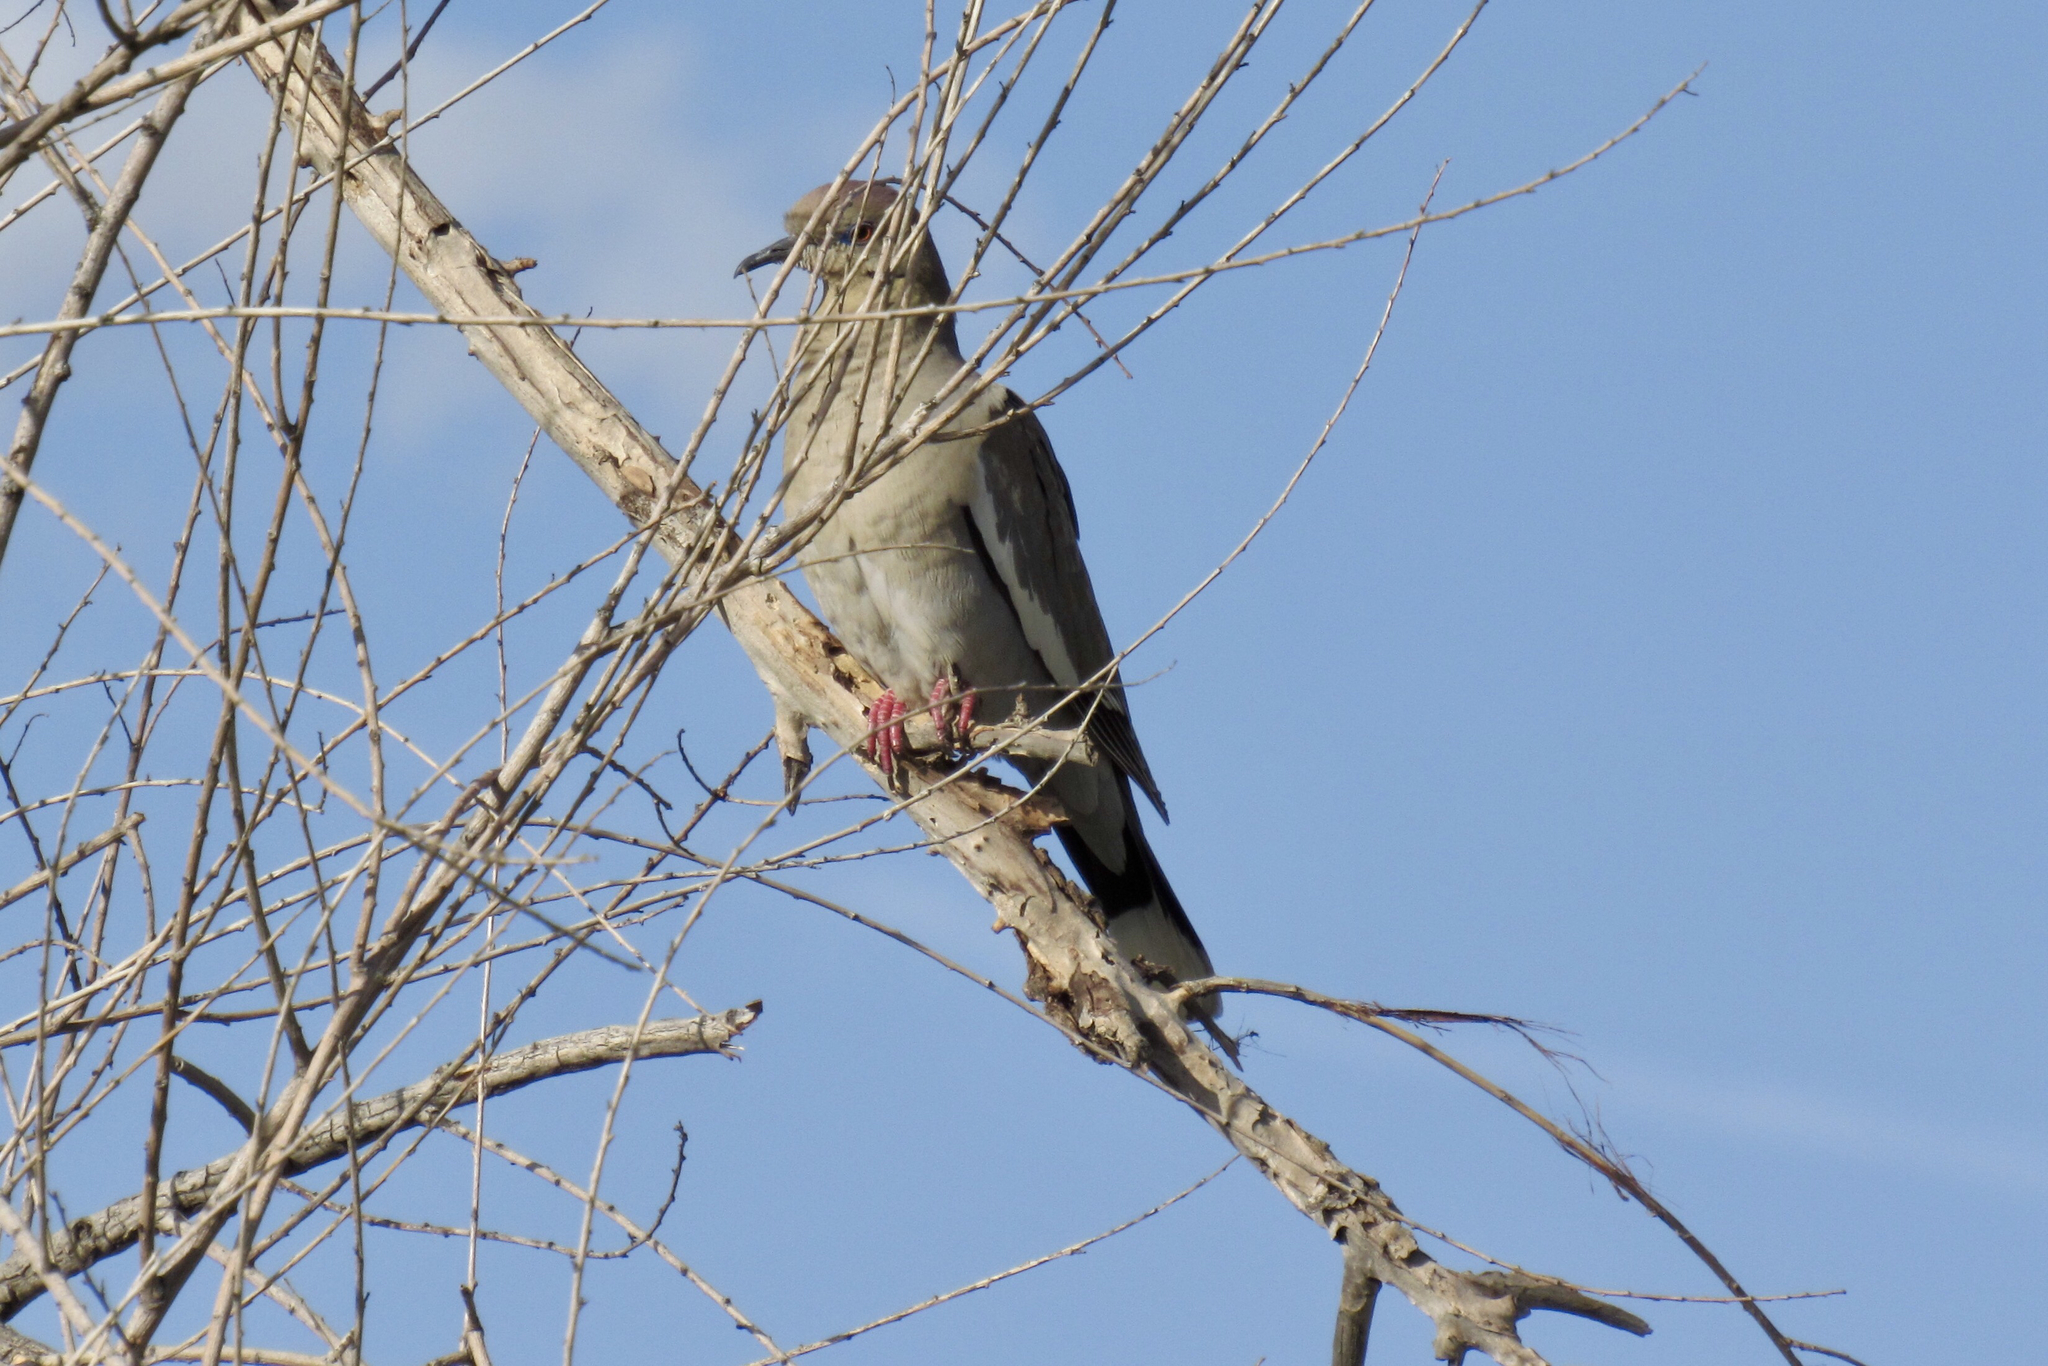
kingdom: Animalia
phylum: Chordata
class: Aves
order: Columbiformes
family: Columbidae
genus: Zenaida
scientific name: Zenaida asiatica
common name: White-winged dove
